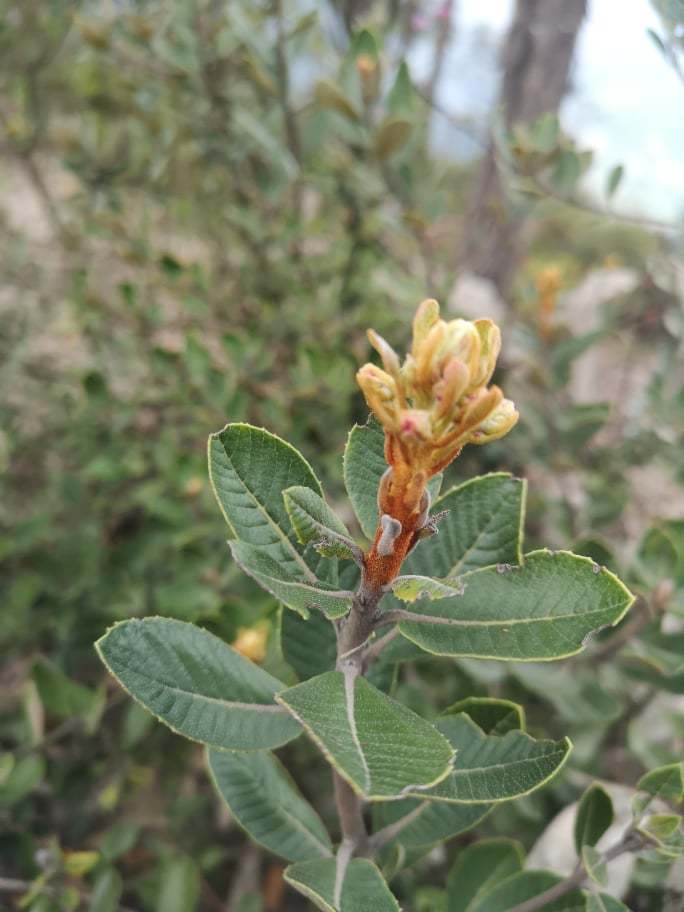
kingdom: Plantae
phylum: Tracheophyta
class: Magnoliopsida
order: Ericales
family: Clethraceae
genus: Clethra
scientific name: Clethra fimbriata
